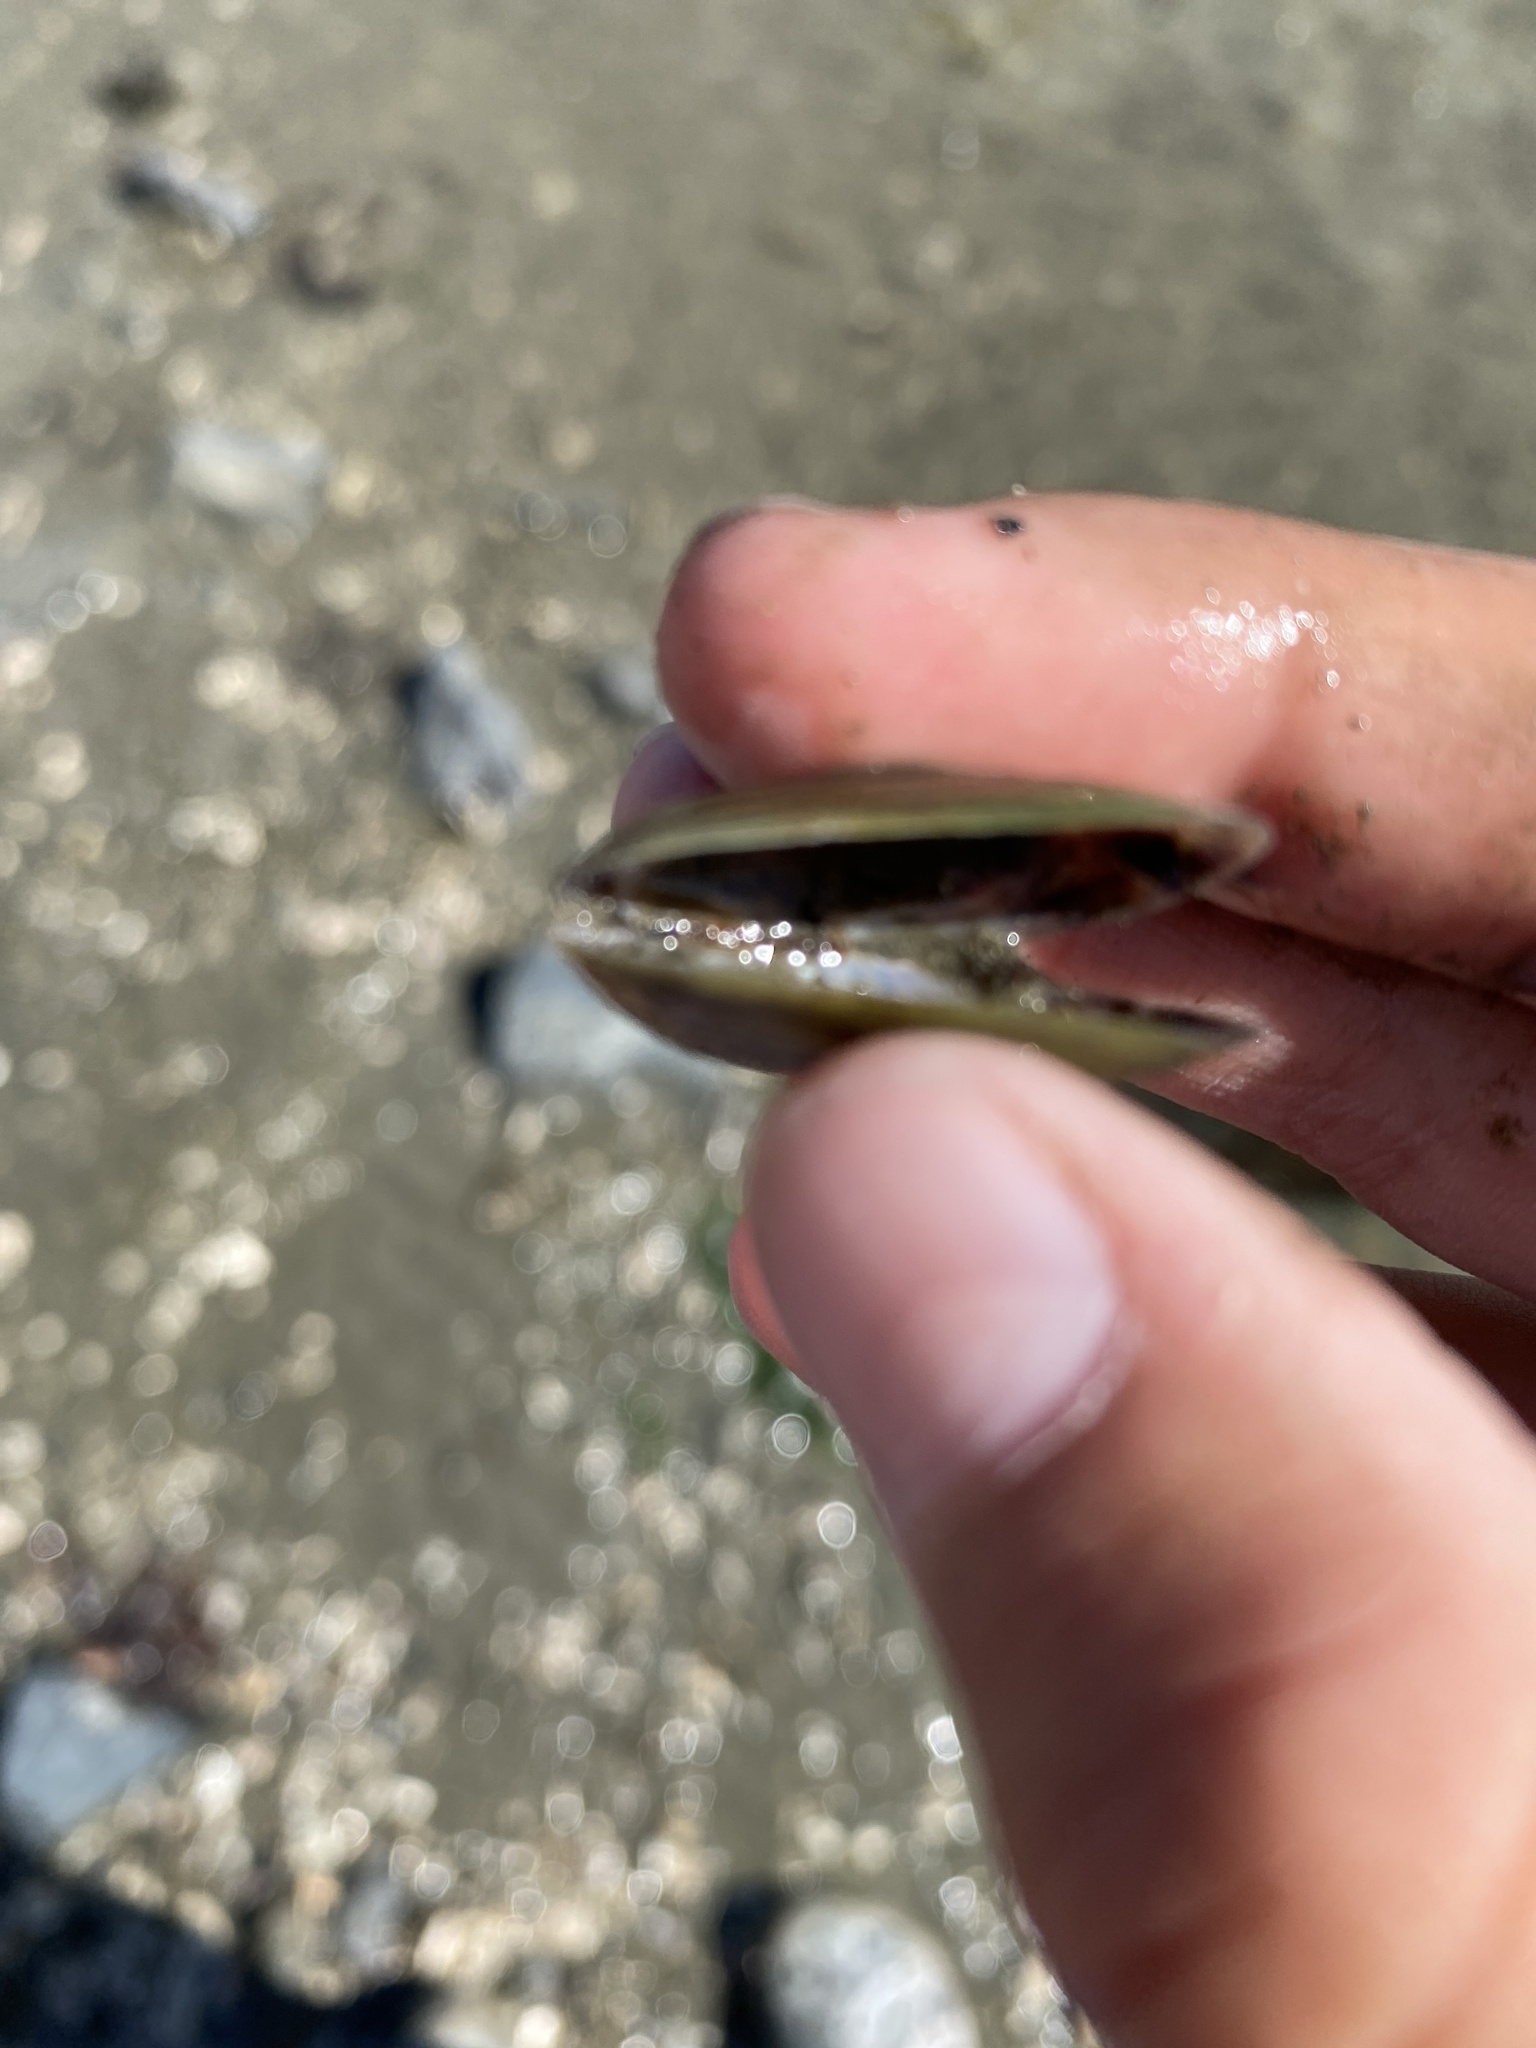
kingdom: Animalia
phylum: Mollusca
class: Bivalvia
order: Mytilida
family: Mytilidae
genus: Arcuatula
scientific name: Arcuatula senhousia
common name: Asian mussel
